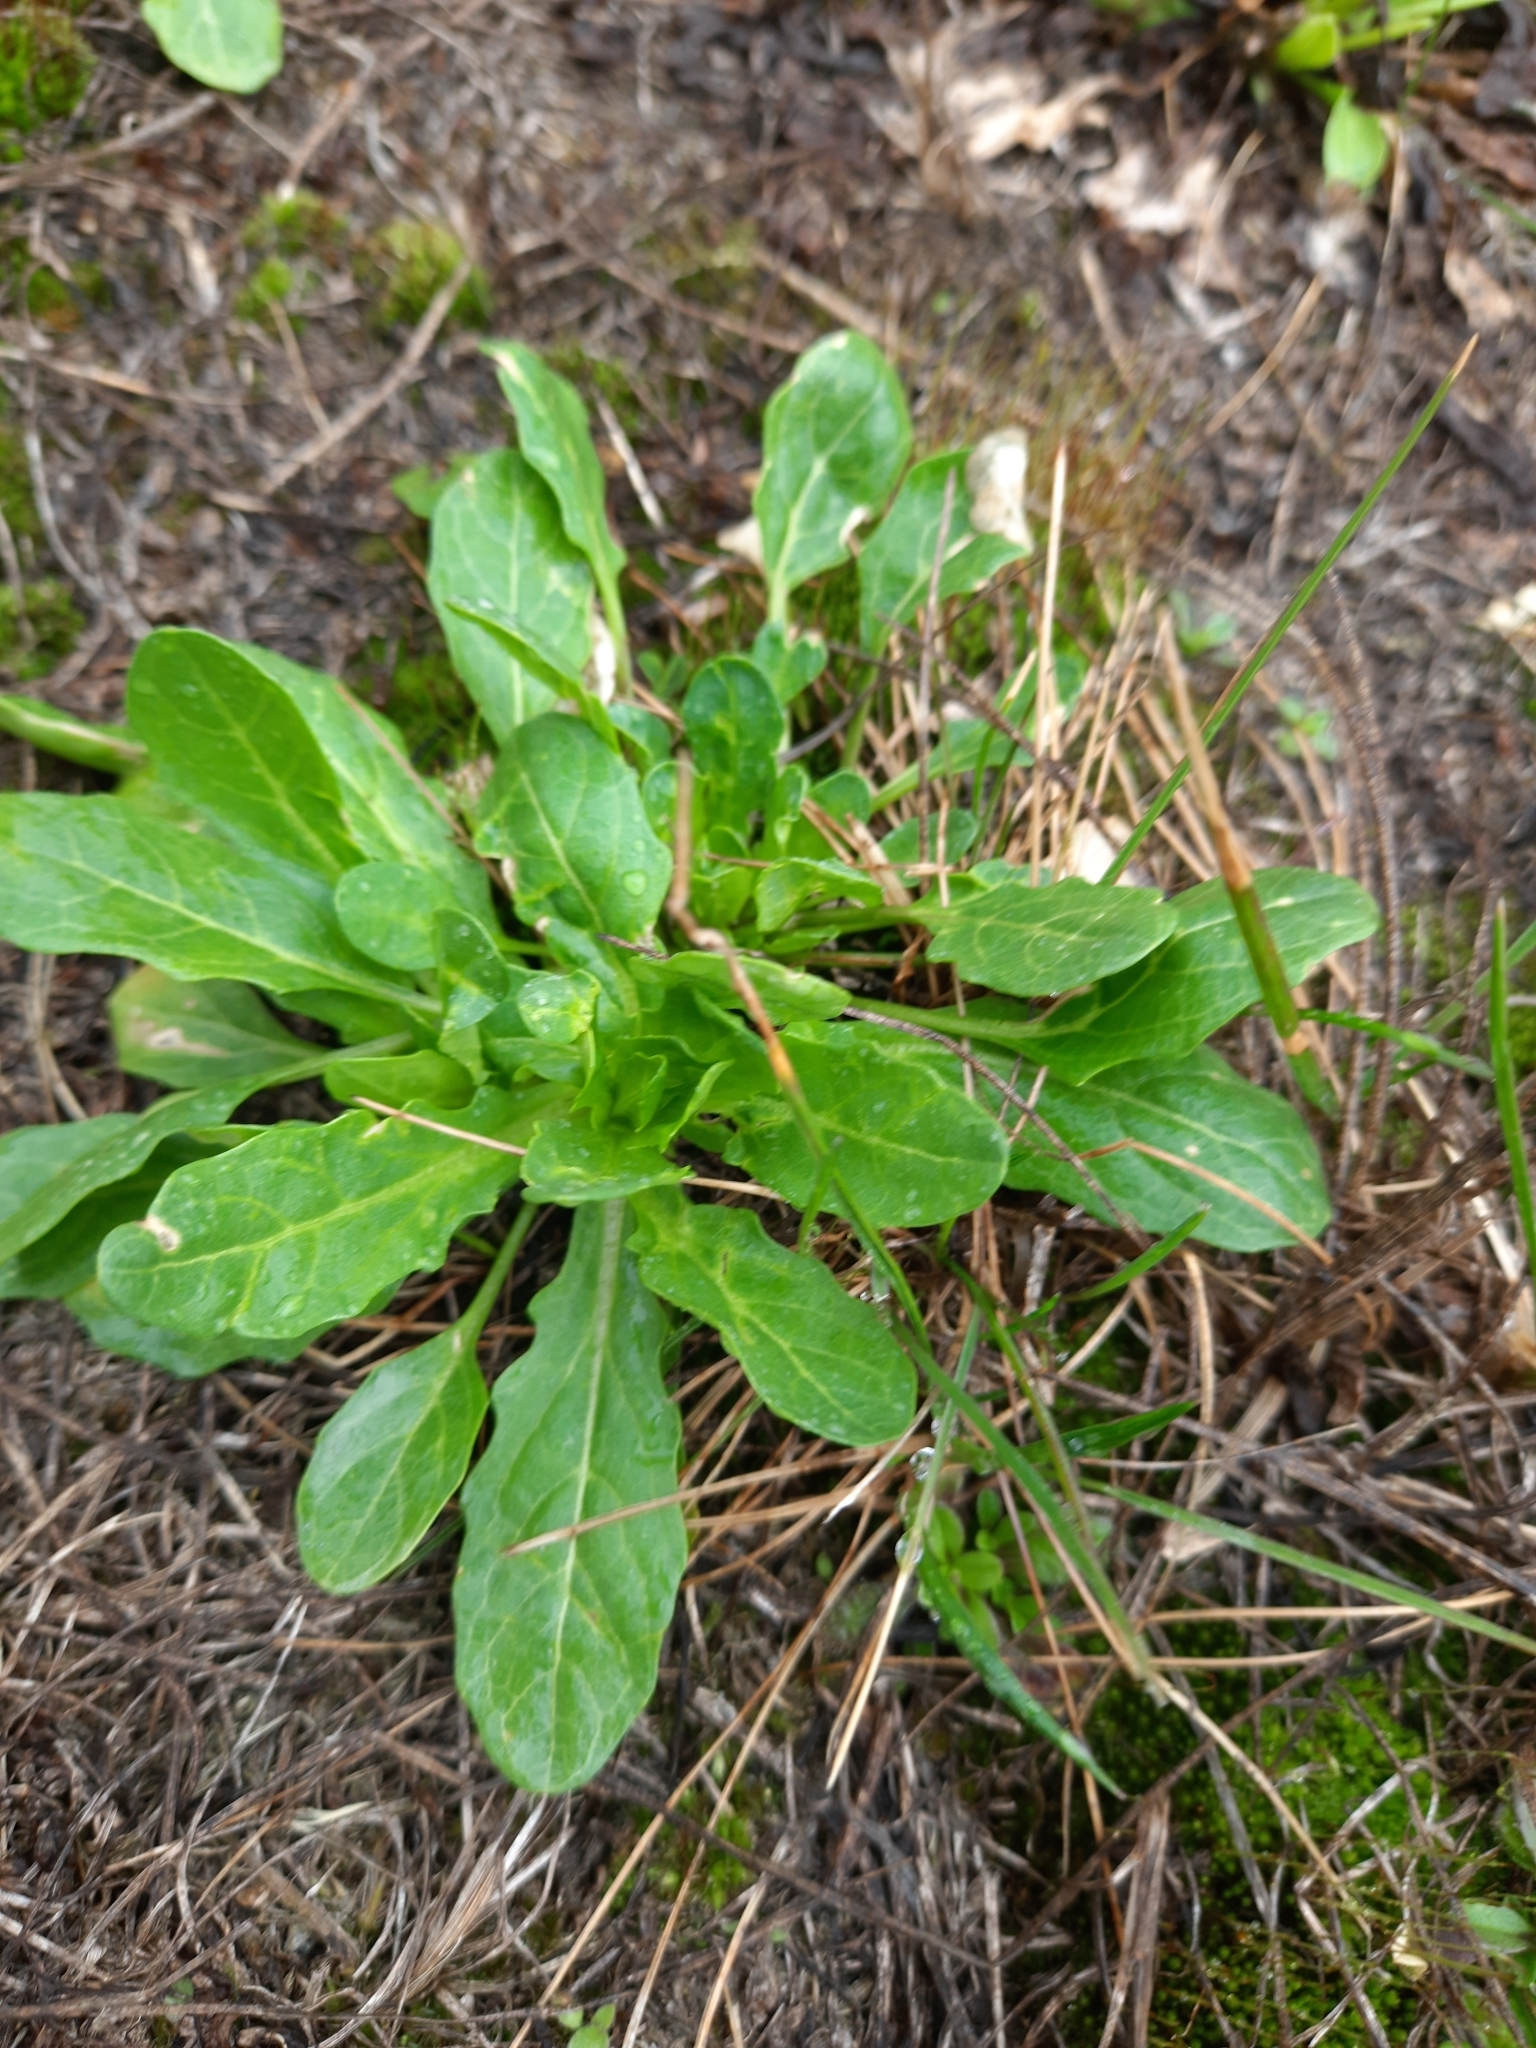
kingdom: Plantae
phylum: Tracheophyta
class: Magnoliopsida
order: Brassicales
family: Brassicaceae
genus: Thlaspi
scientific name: Thlaspi arvense
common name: Field pennycress
